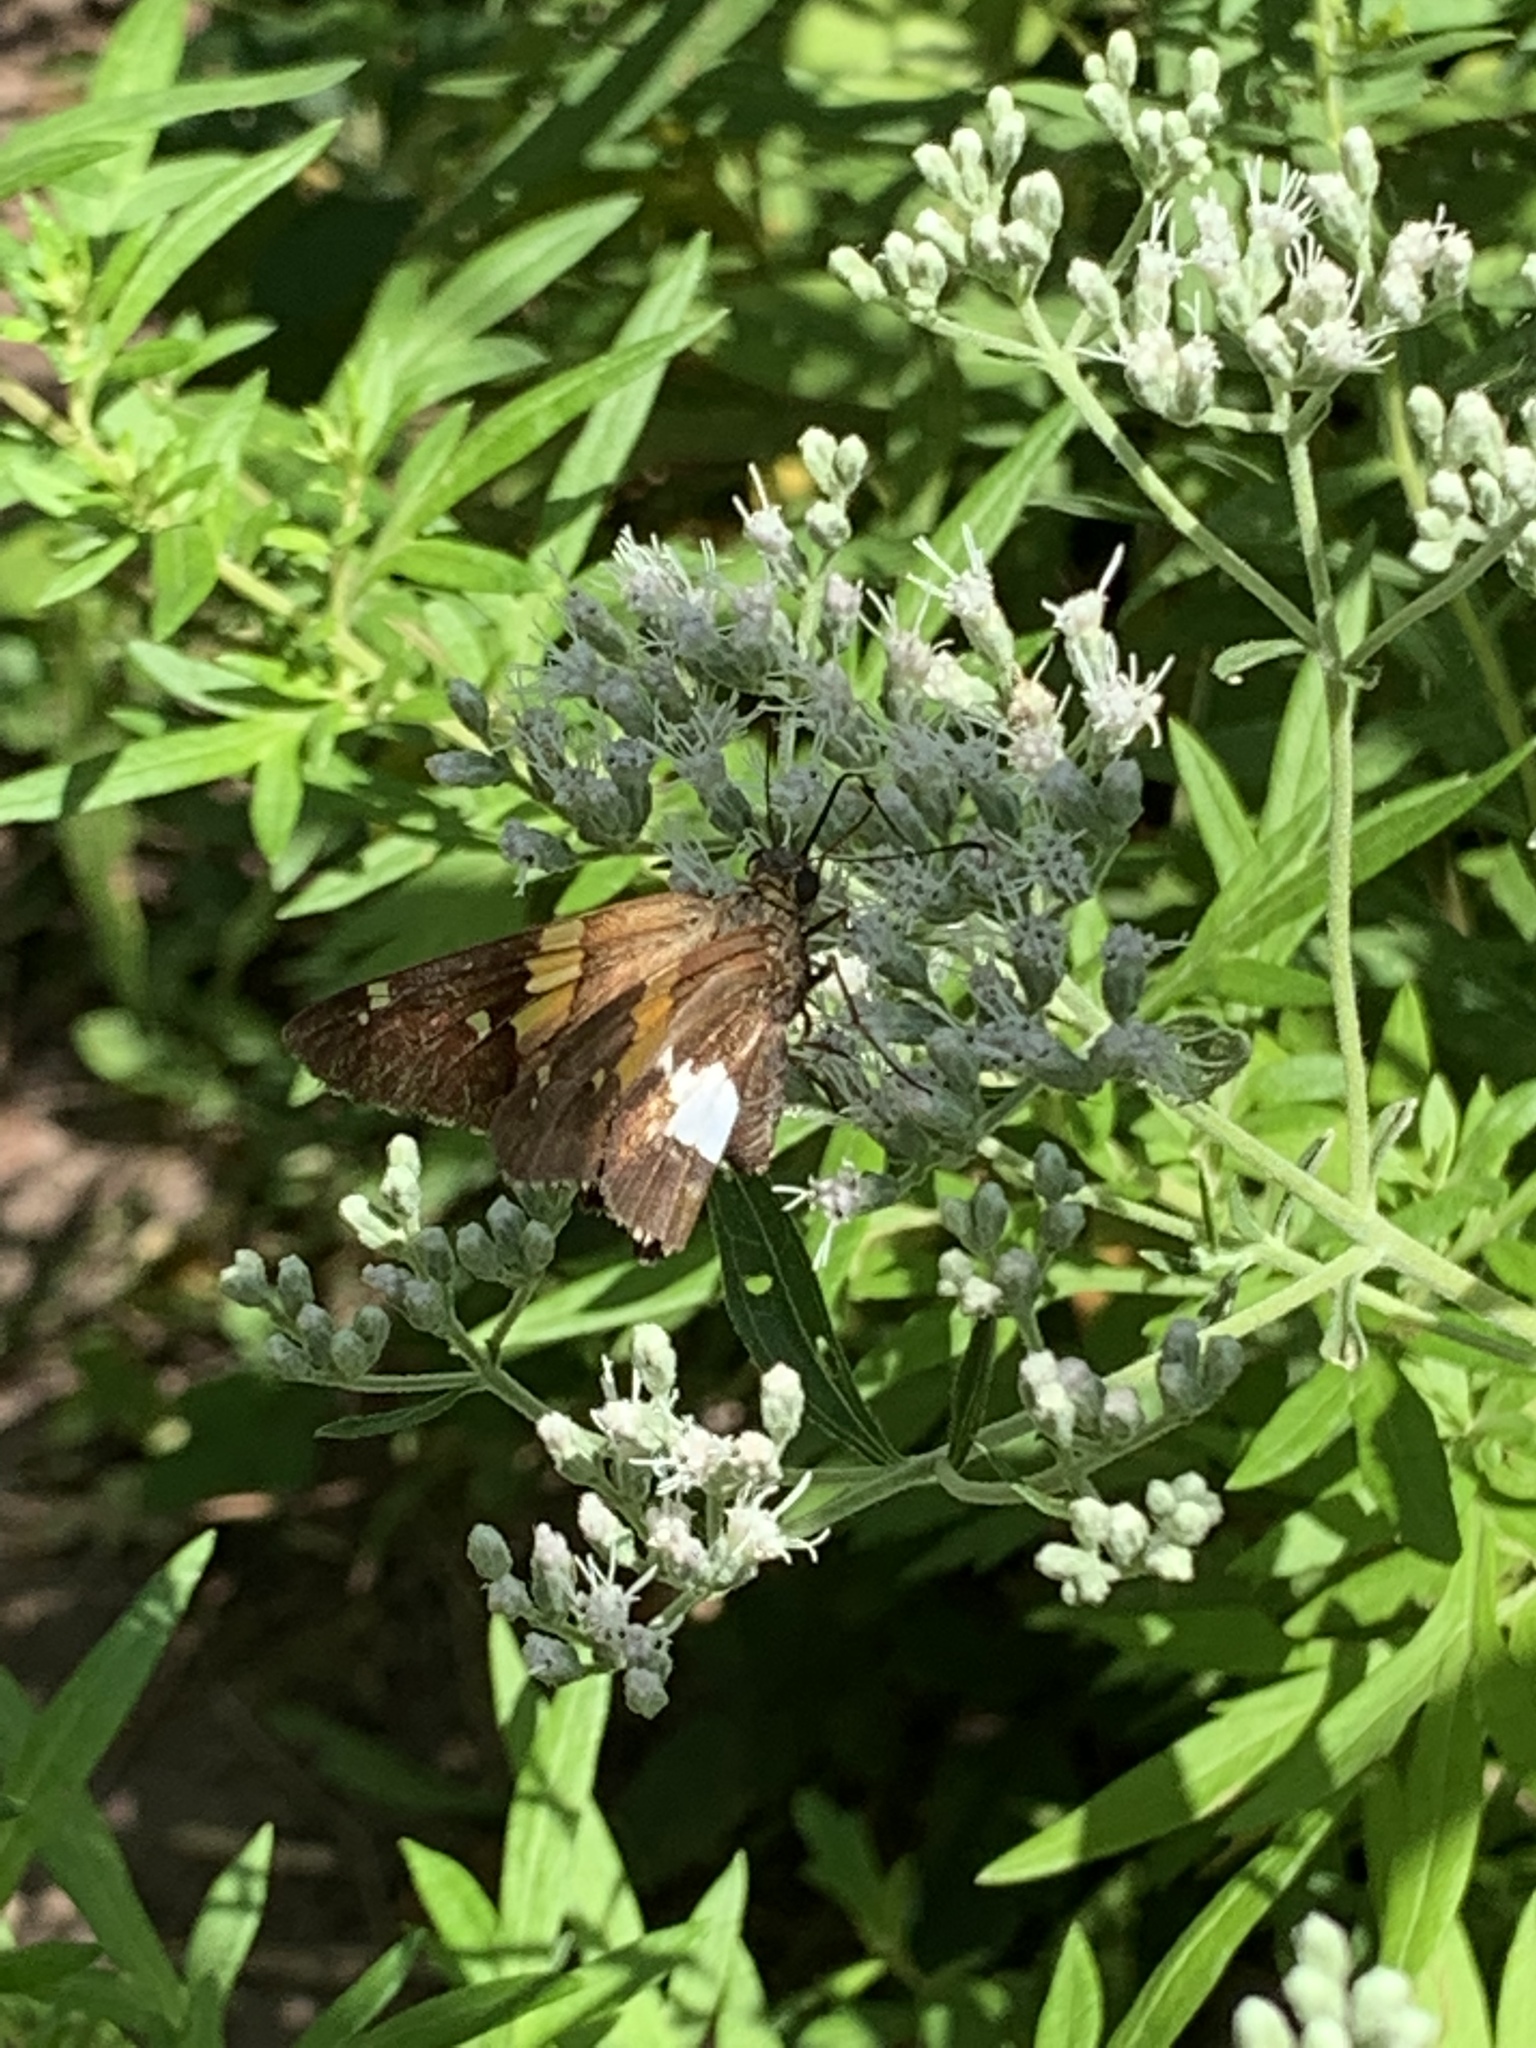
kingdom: Animalia
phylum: Arthropoda
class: Insecta
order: Lepidoptera
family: Hesperiidae
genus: Epargyreus
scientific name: Epargyreus clarus
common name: Silver-spotted skipper
